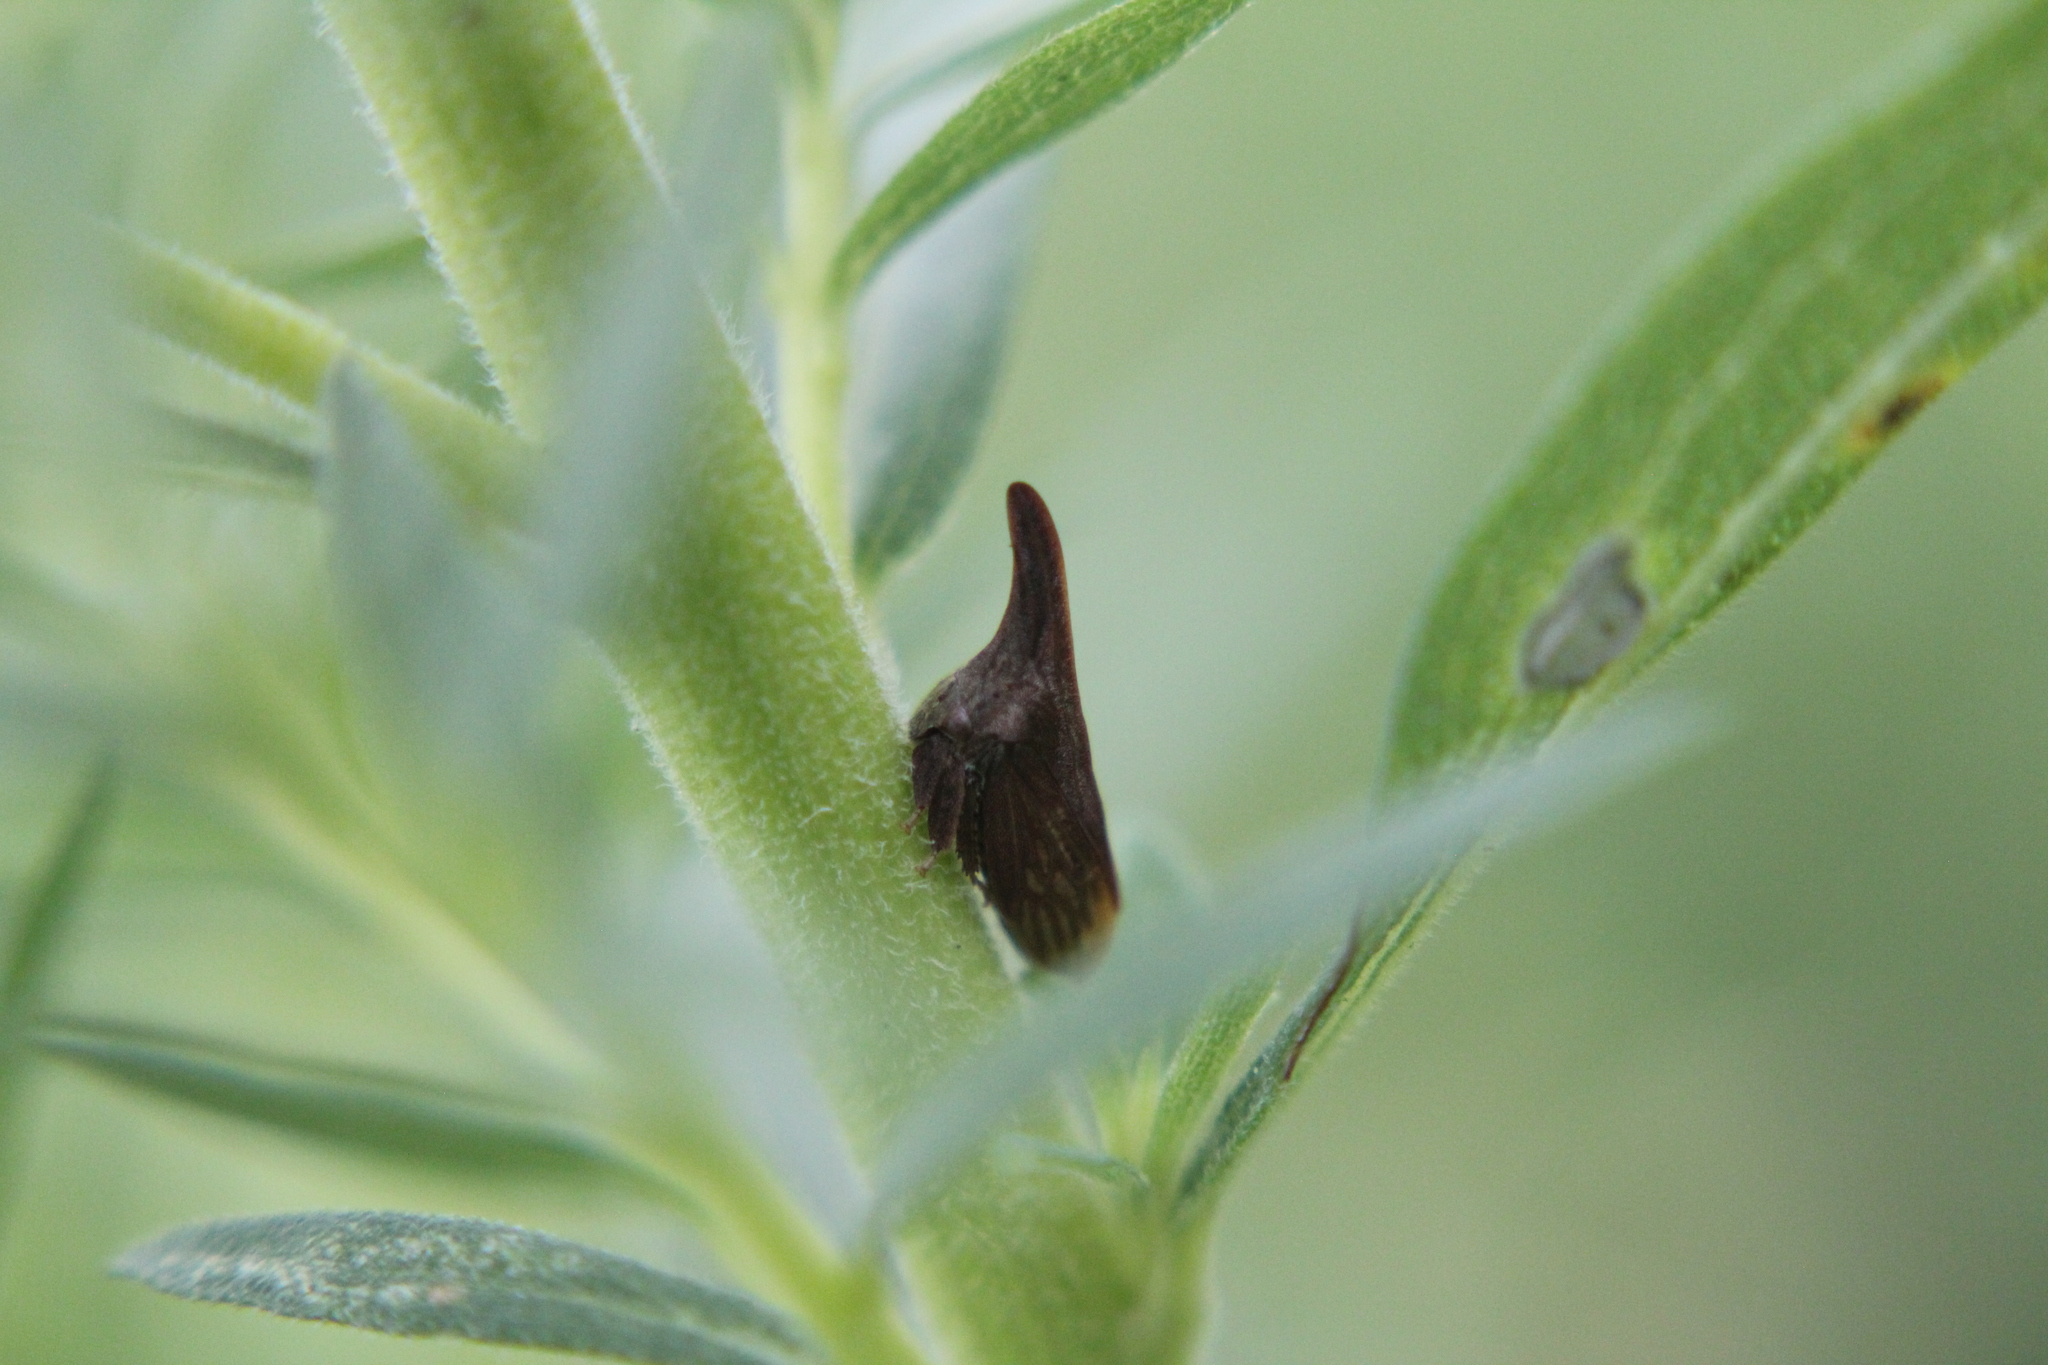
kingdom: Animalia
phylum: Arthropoda
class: Insecta
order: Hemiptera
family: Membracidae
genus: Enchenopa
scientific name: Enchenopa latipes
